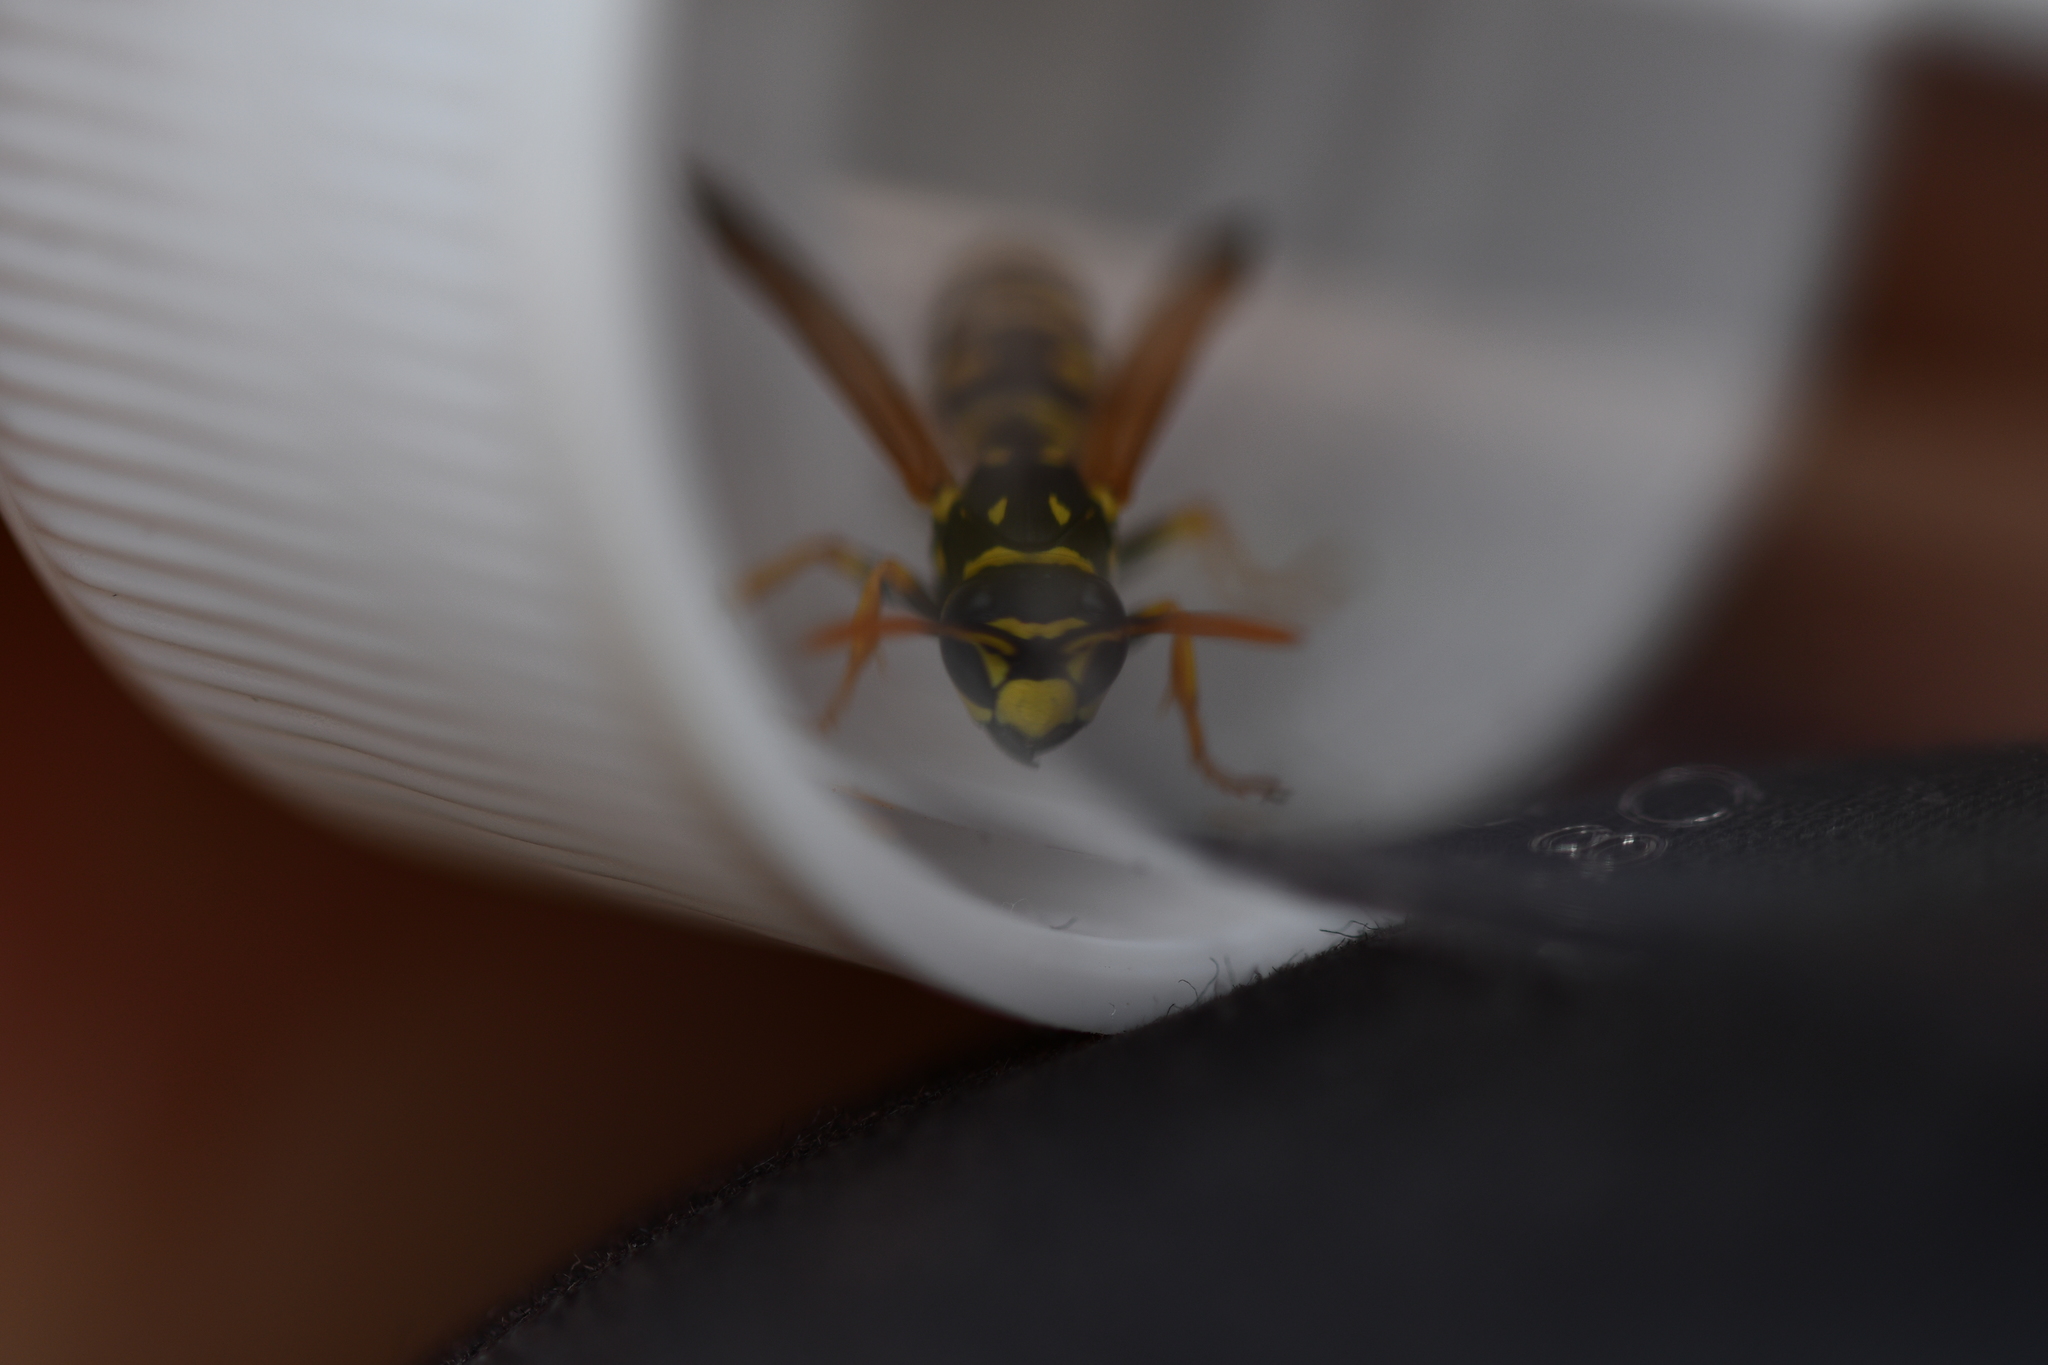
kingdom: Animalia
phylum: Arthropoda
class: Insecta
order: Hymenoptera
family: Eumenidae
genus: Polistes
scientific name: Polistes dominula
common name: Paper wasp
